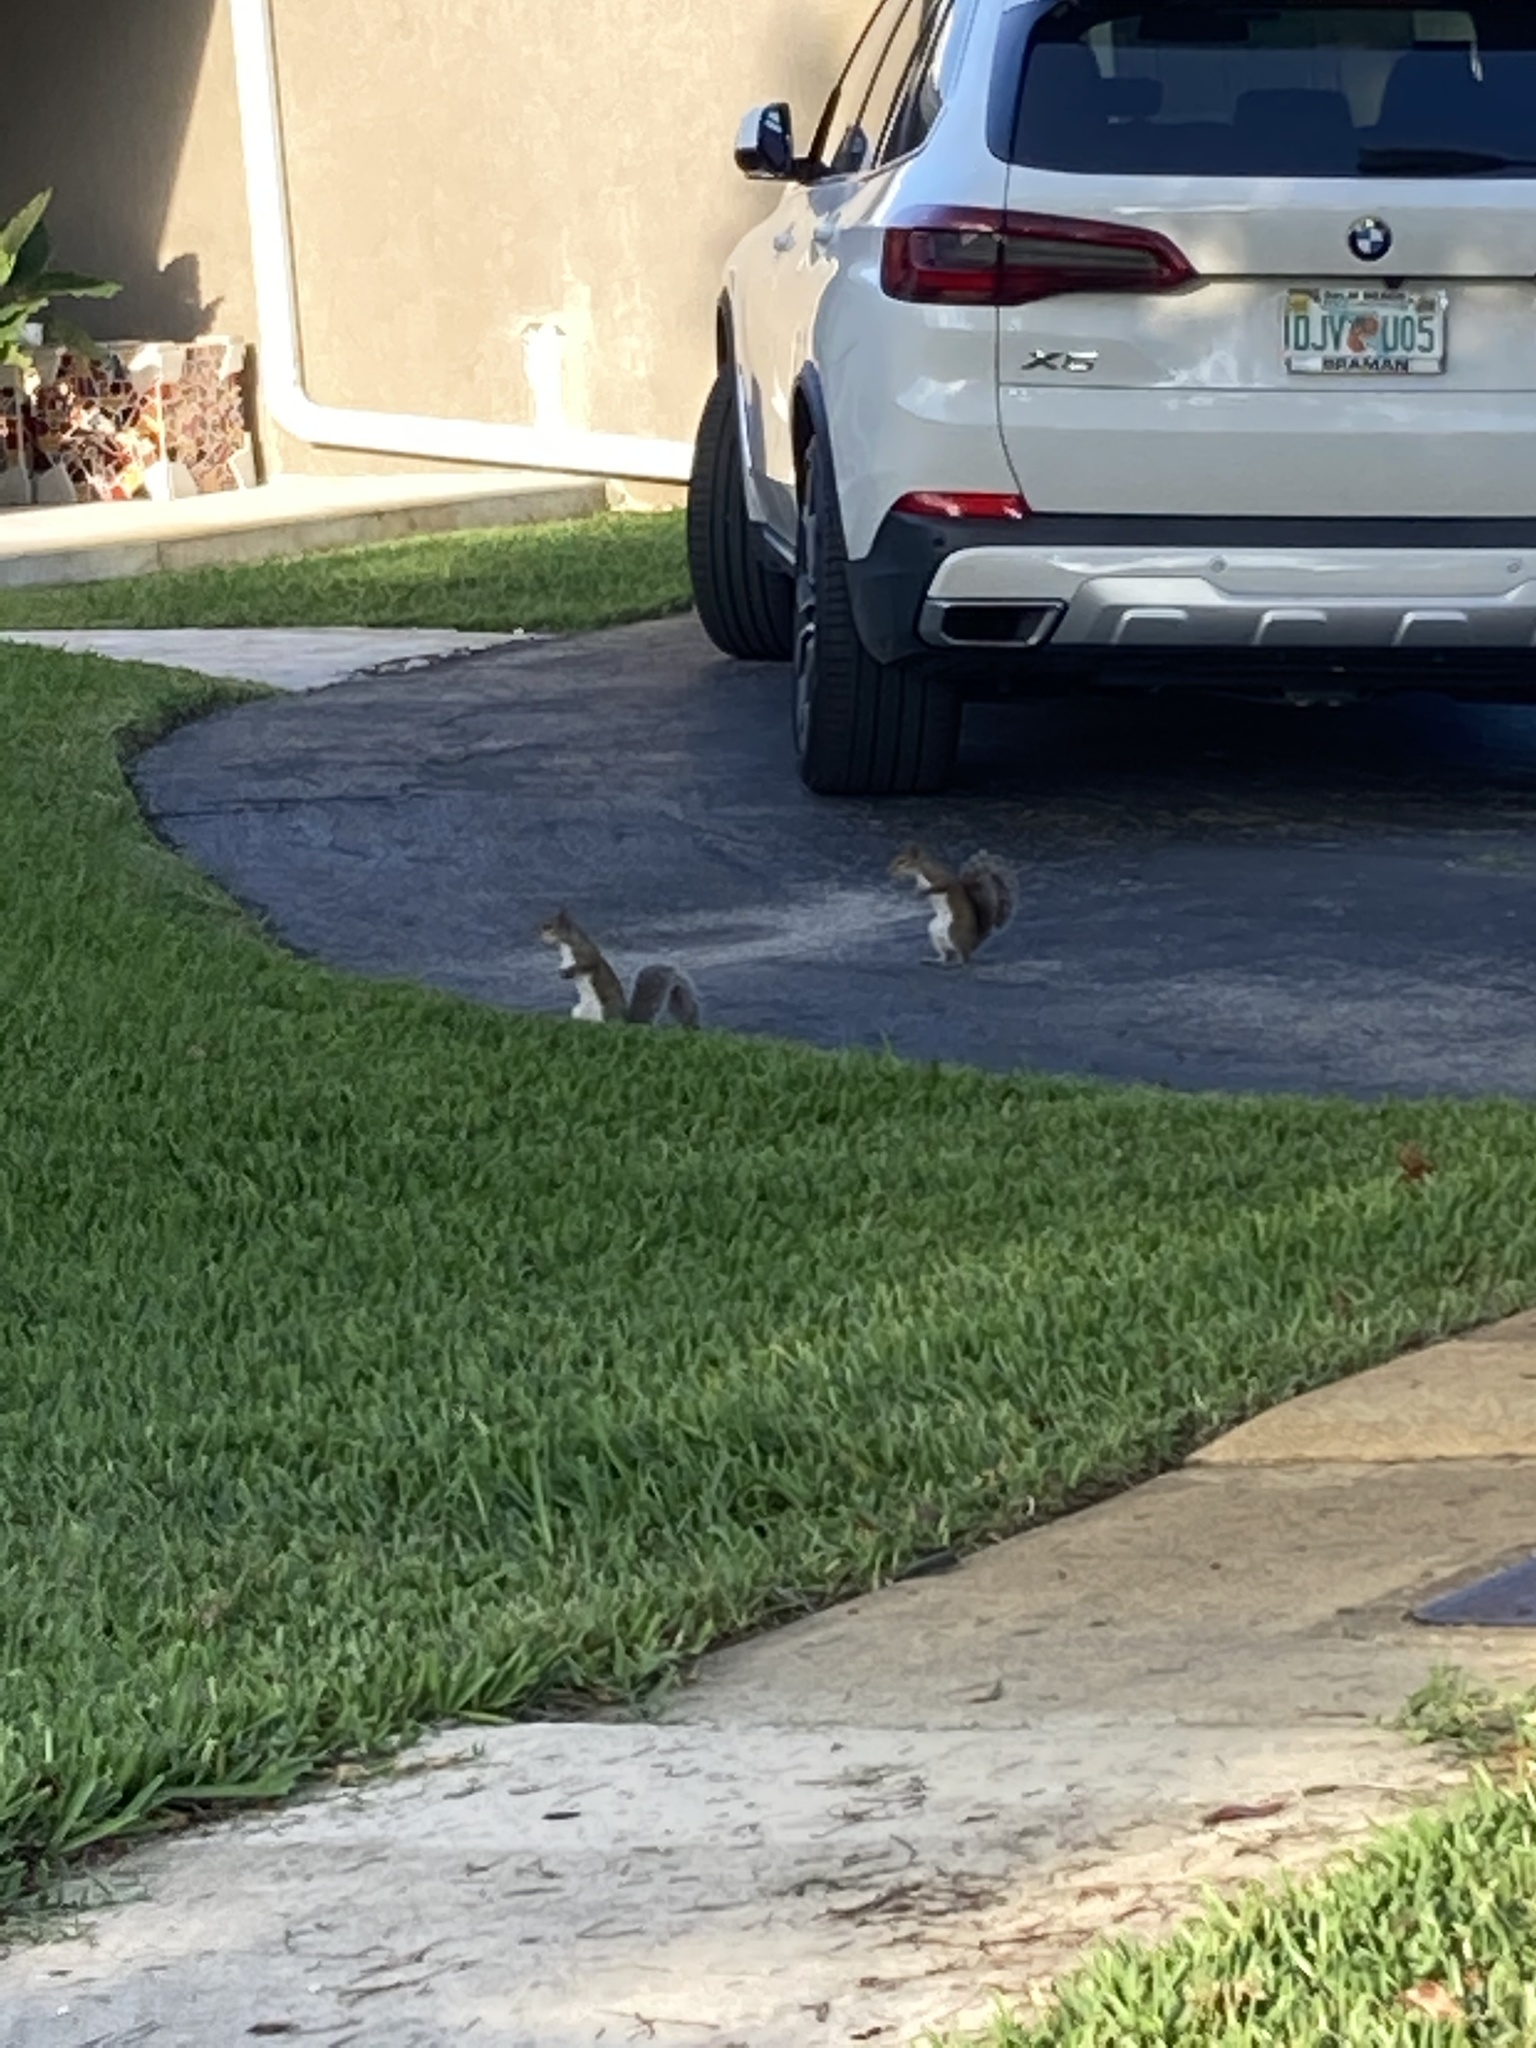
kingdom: Animalia
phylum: Chordata
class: Mammalia
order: Rodentia
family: Sciuridae
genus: Sciurus
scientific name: Sciurus carolinensis
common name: Eastern gray squirrel
